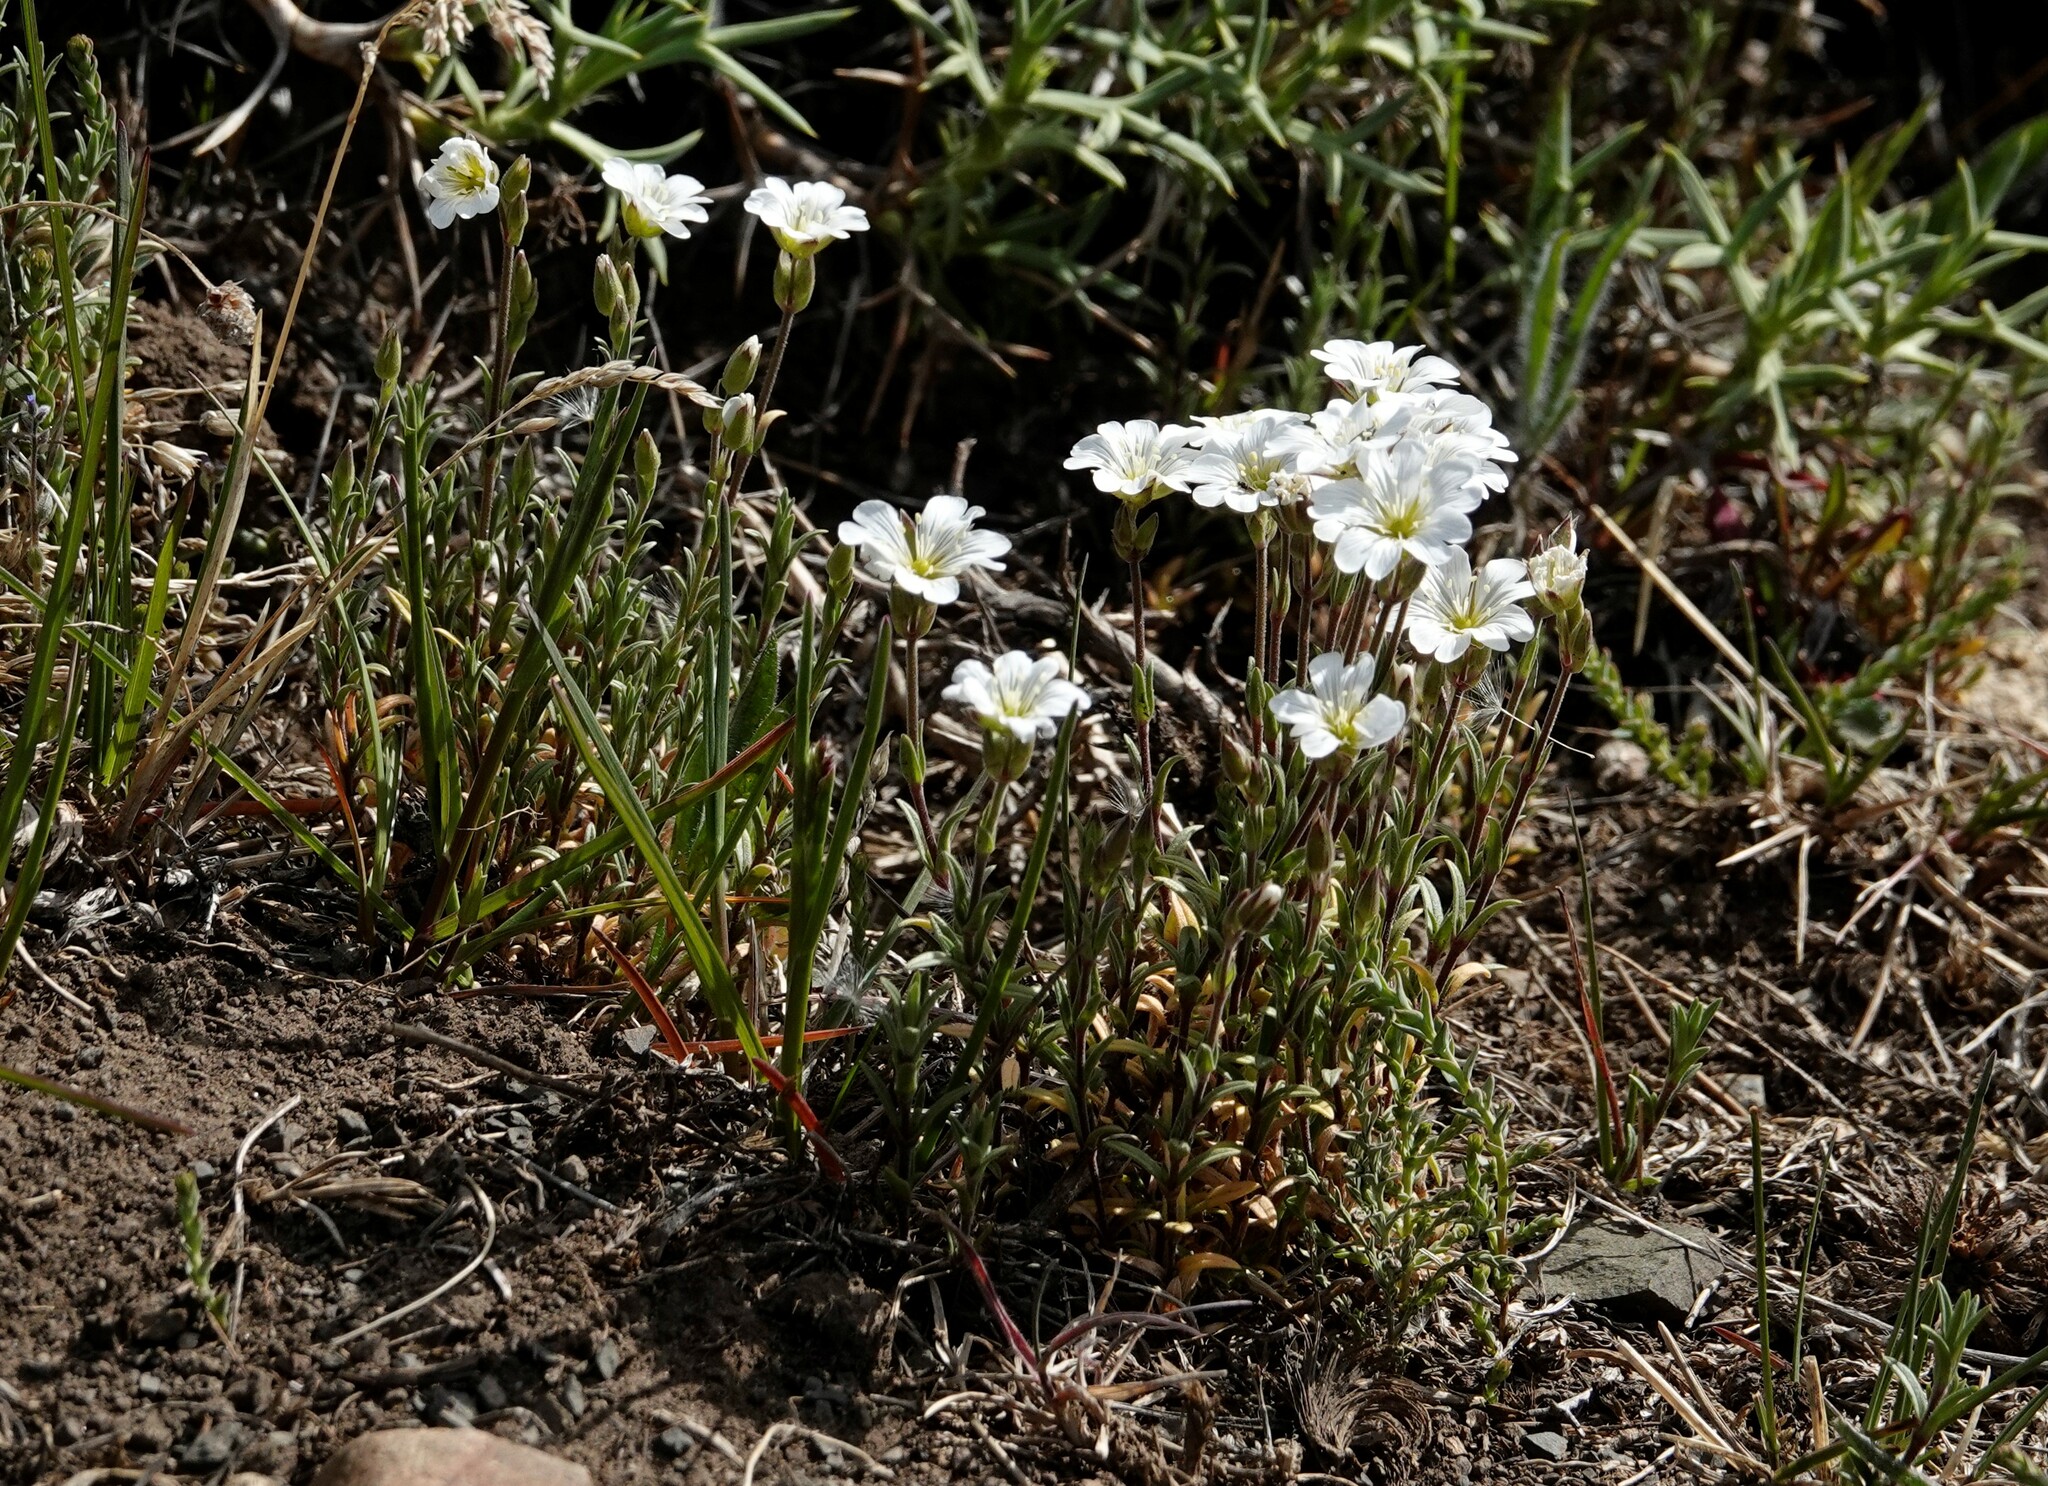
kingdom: Plantae
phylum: Tracheophyta
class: Magnoliopsida
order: Caryophyllales
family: Caryophyllaceae
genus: Cerastium
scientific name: Cerastium arvense
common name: Field mouse-ear
